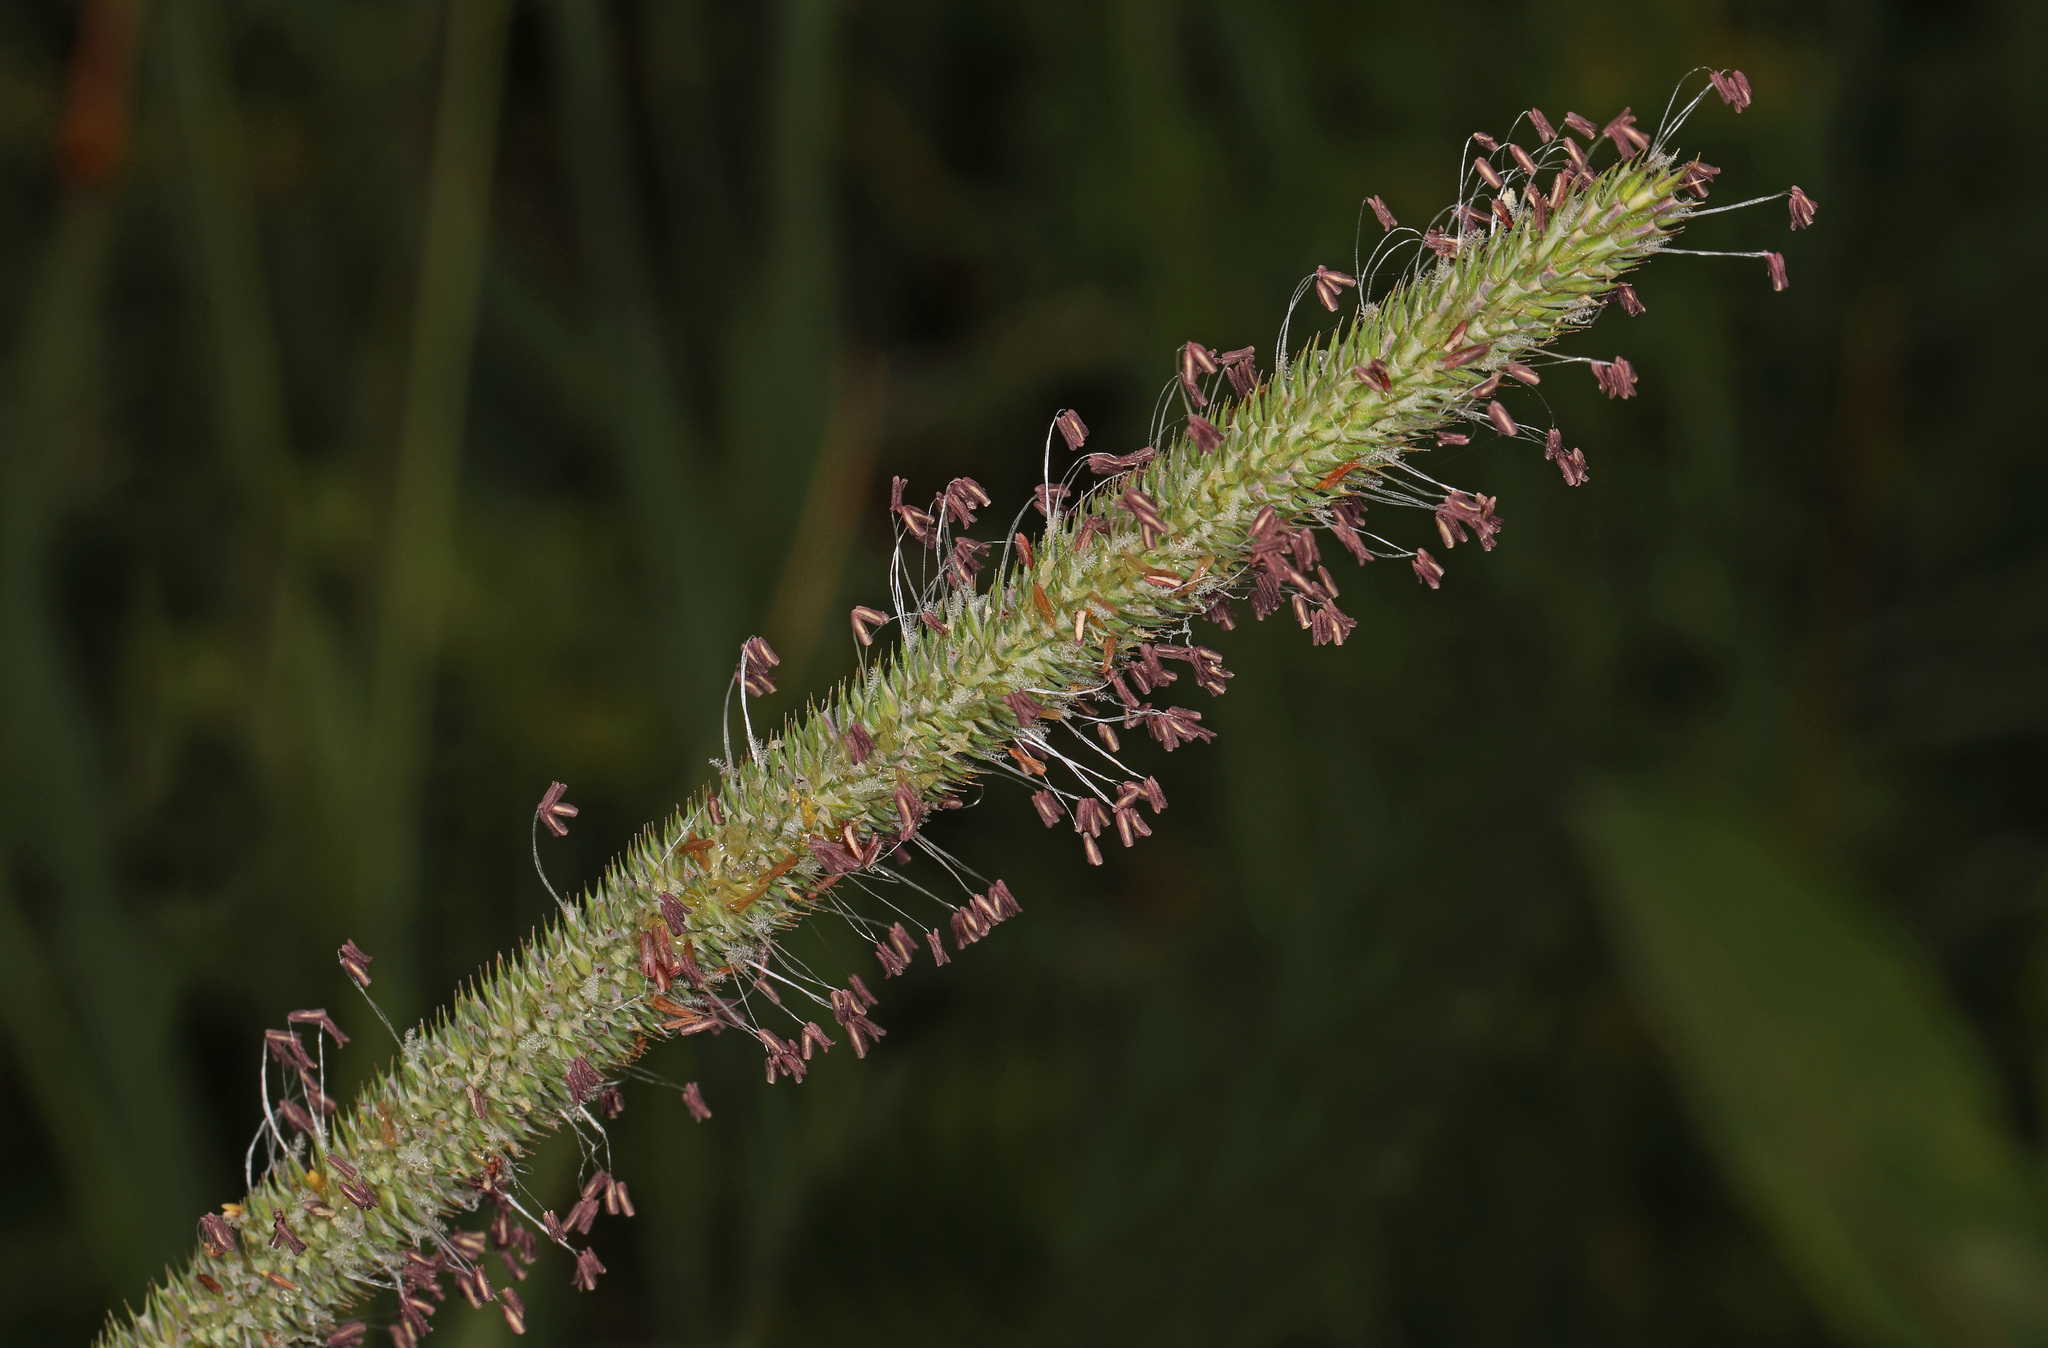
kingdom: Plantae
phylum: Tracheophyta
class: Liliopsida
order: Poales
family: Poaceae
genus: Phleum
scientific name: Phleum pratense
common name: Timothy grass
